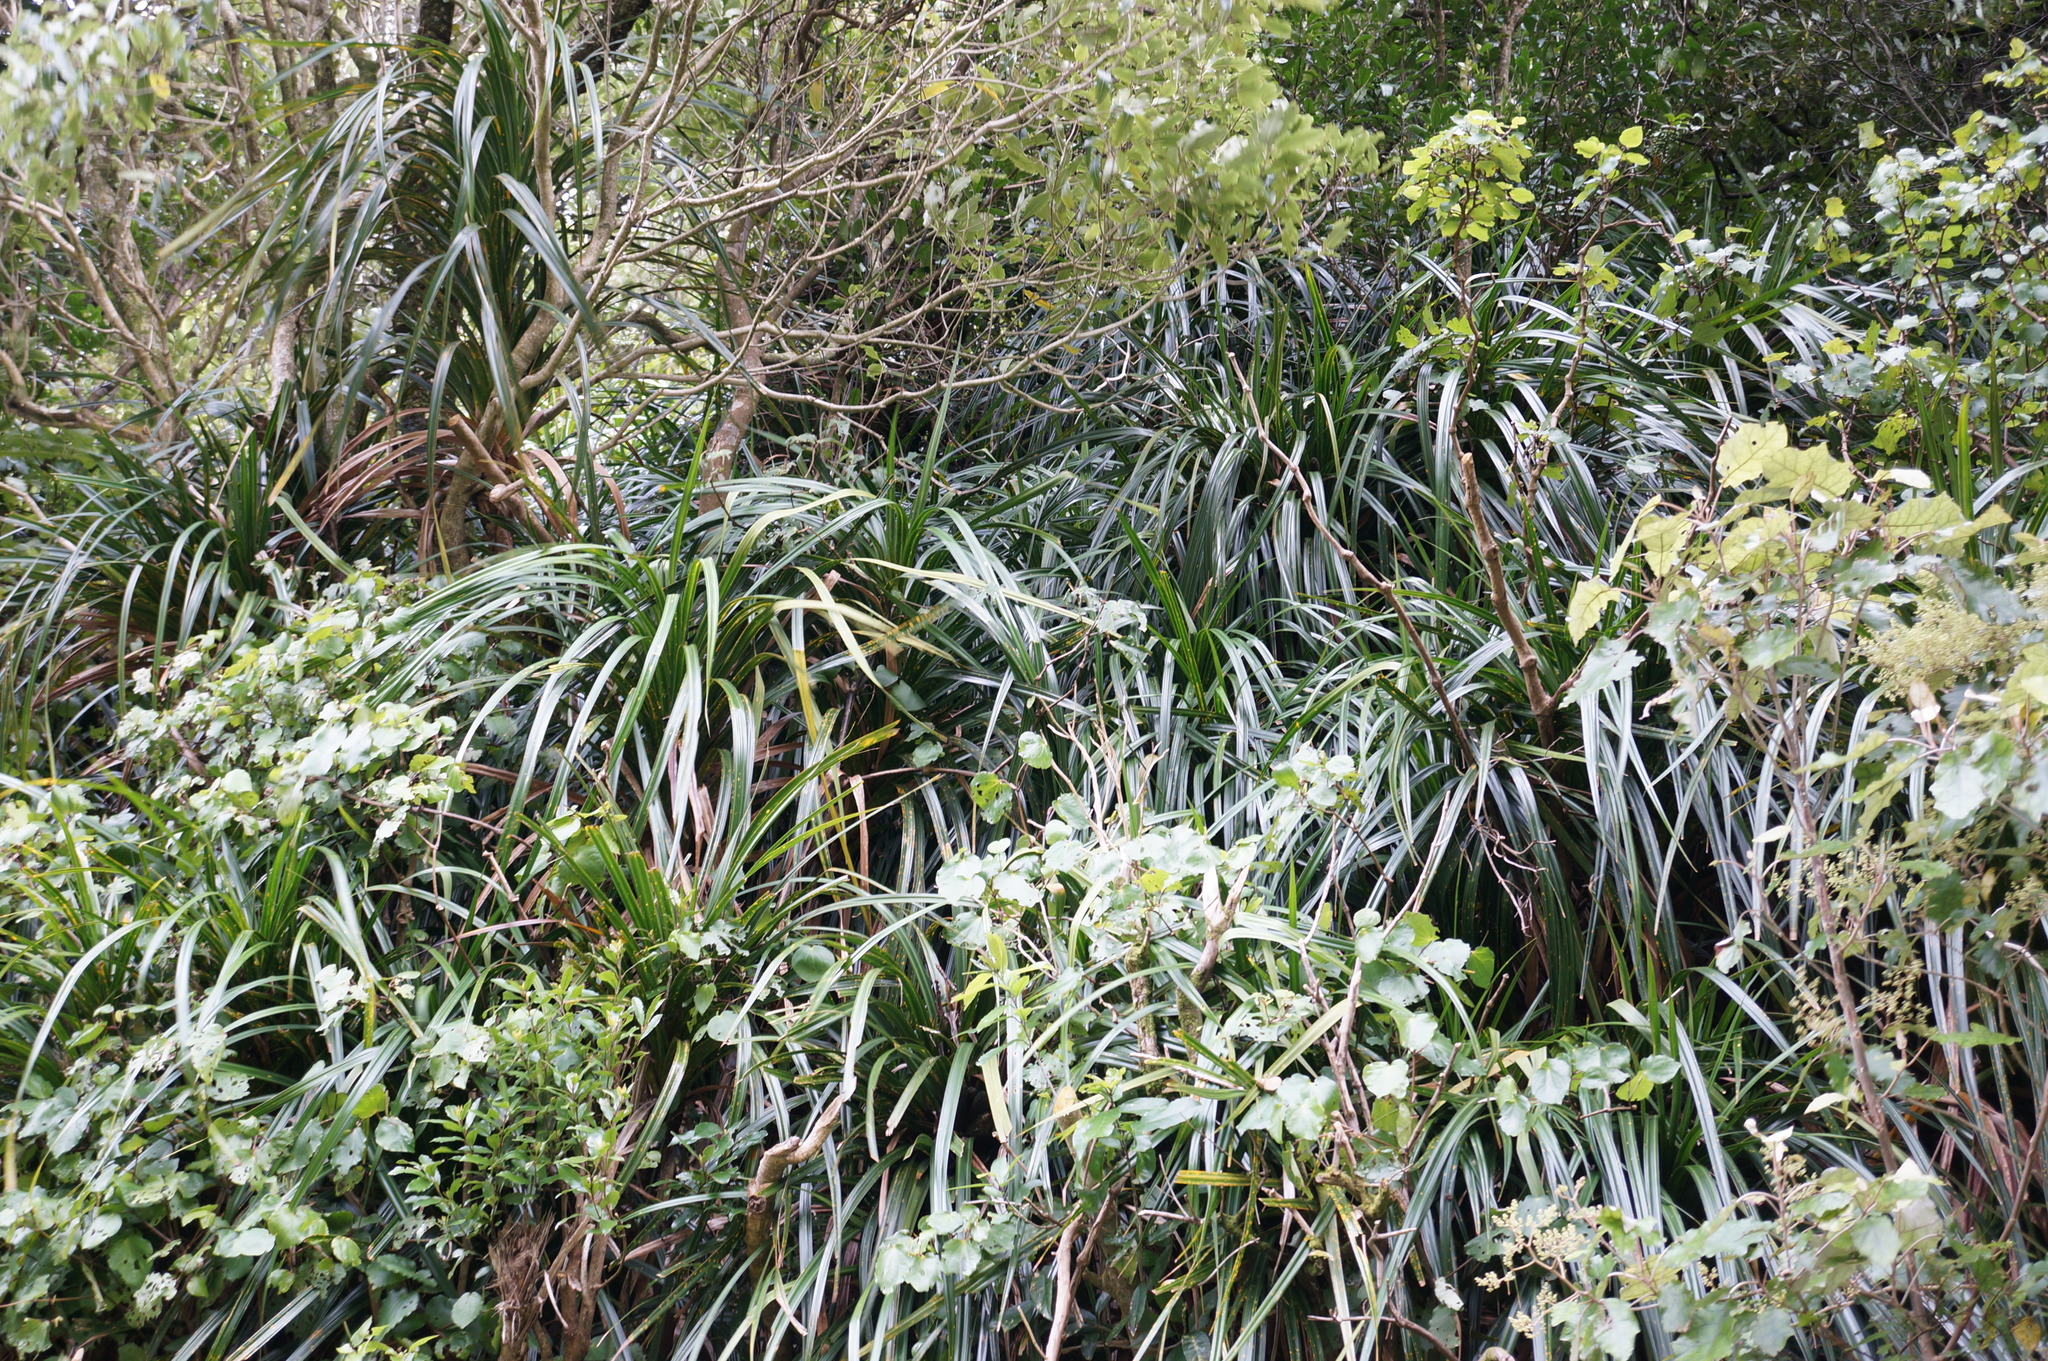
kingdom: Plantae
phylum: Tracheophyta
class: Liliopsida
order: Pandanales
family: Pandanaceae
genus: Freycinetia
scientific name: Freycinetia banksii
